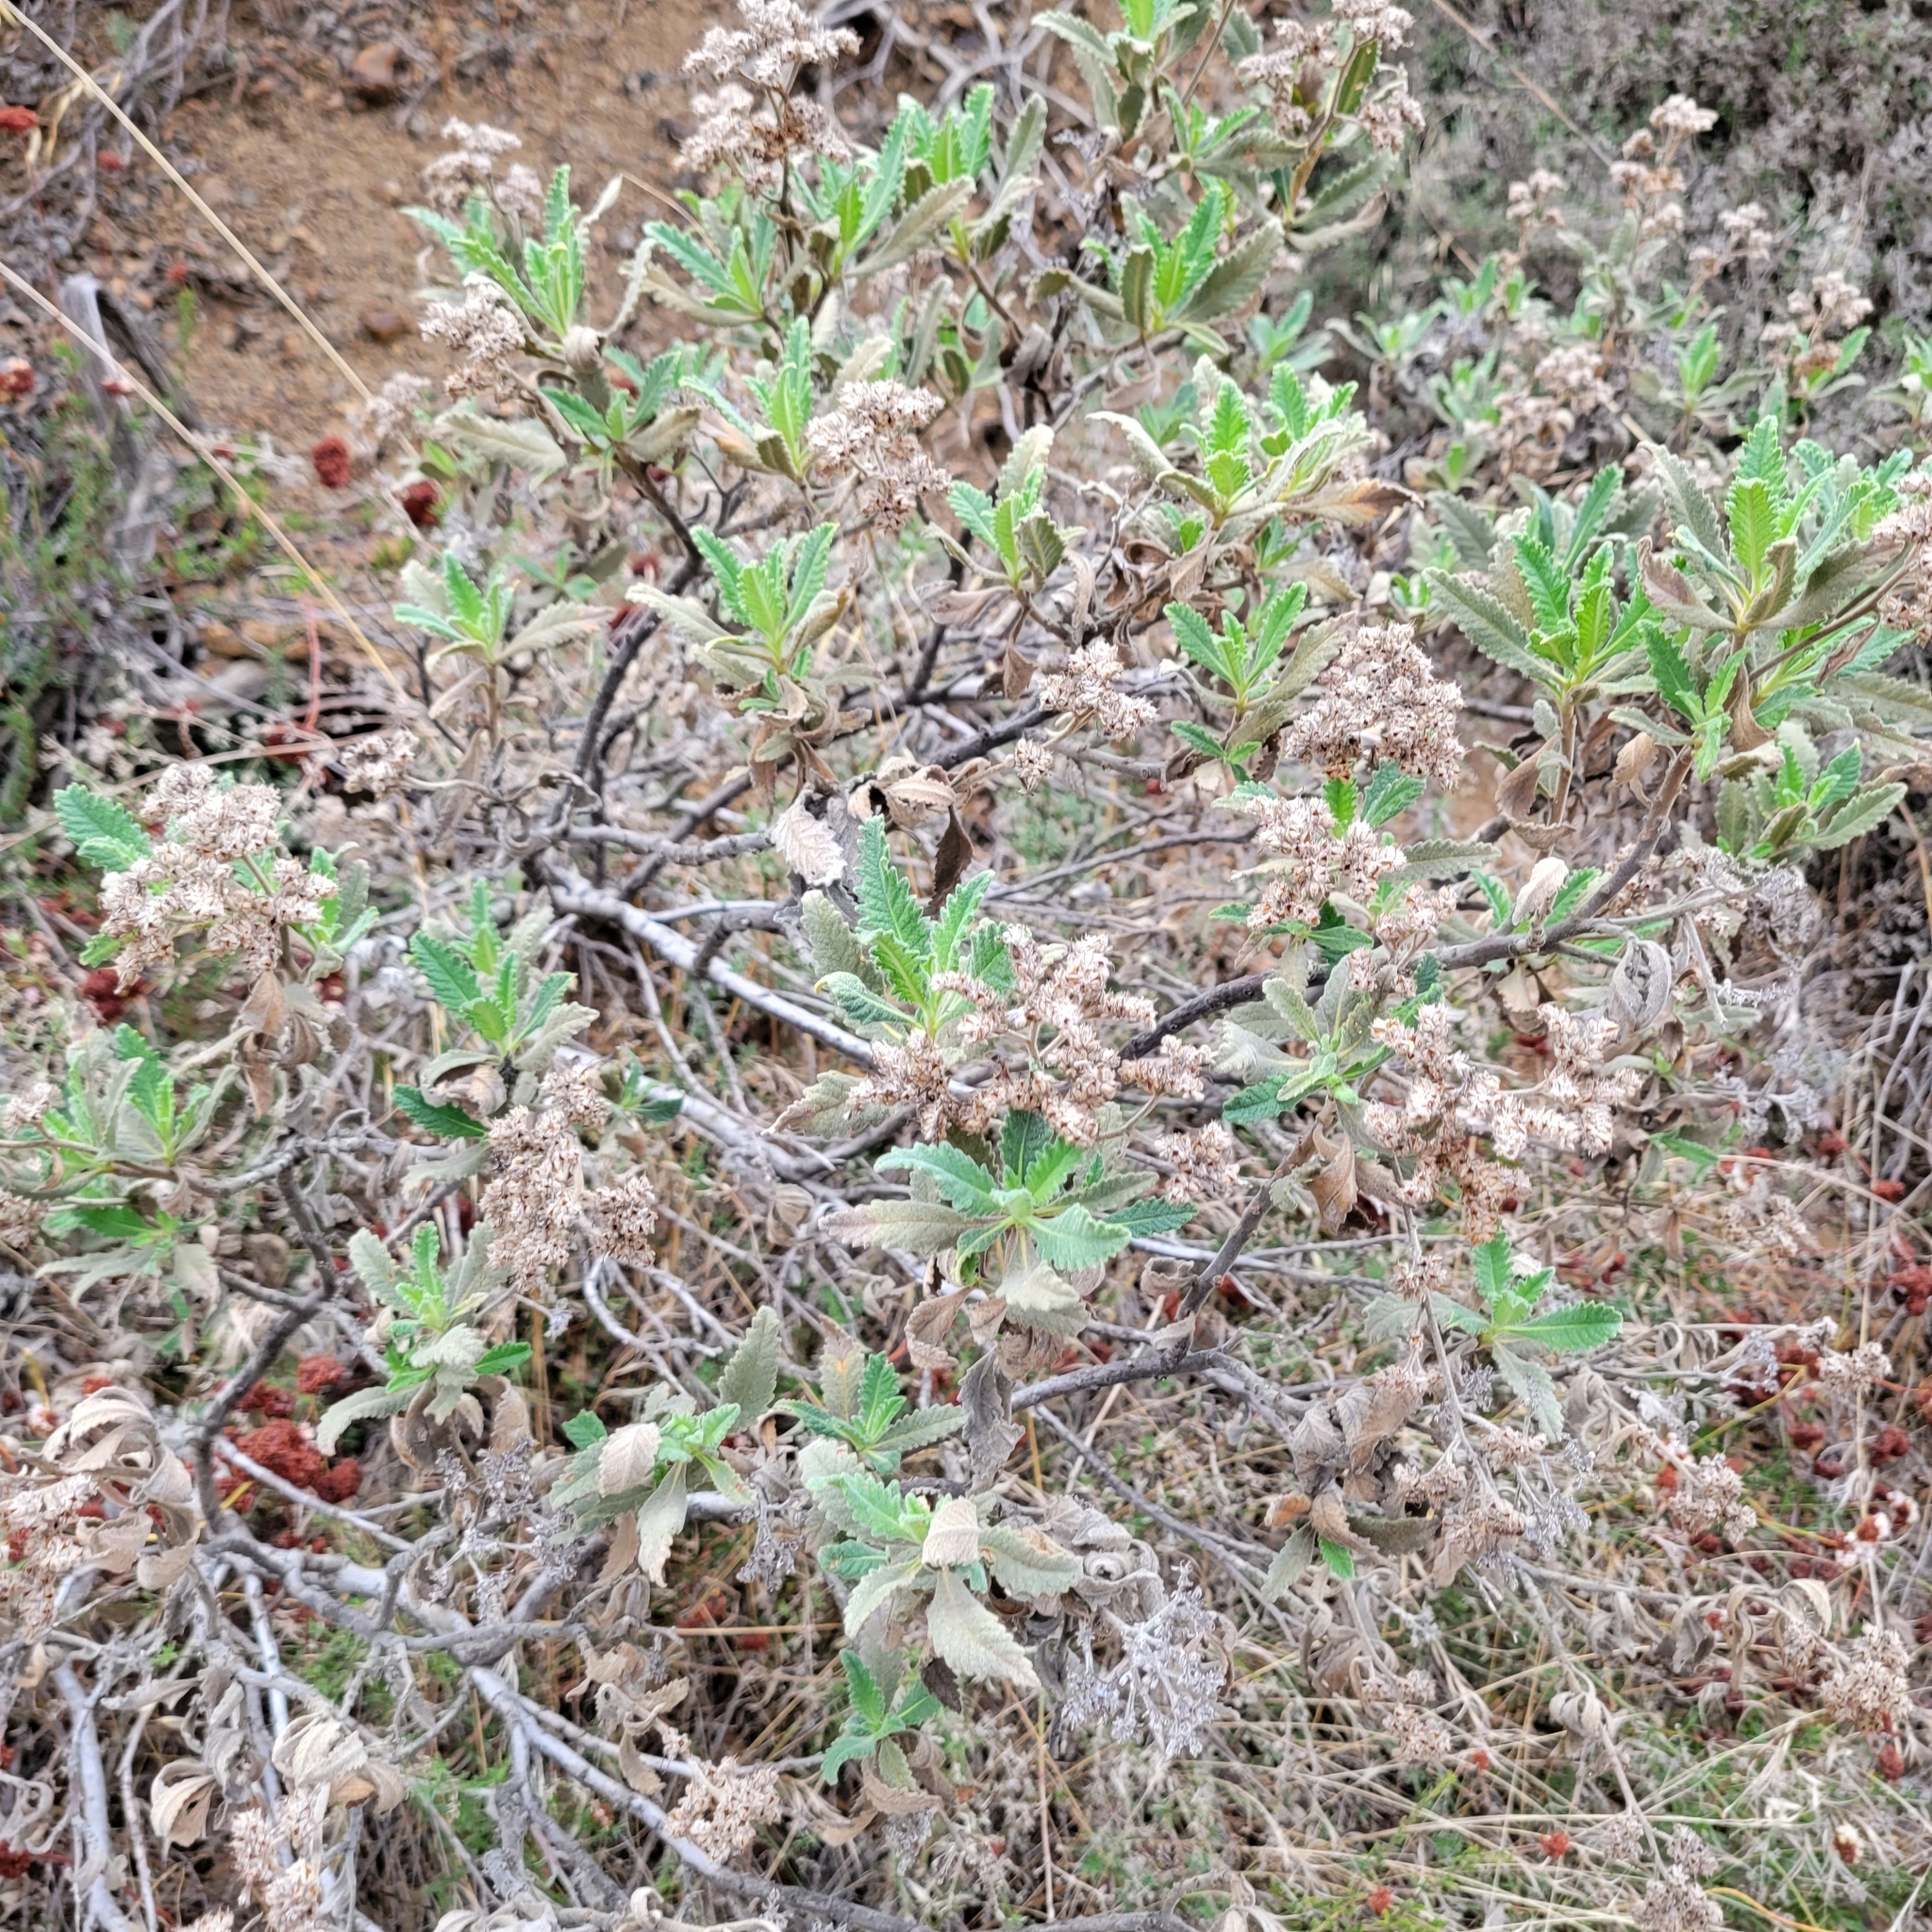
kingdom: Plantae
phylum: Tracheophyta
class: Magnoliopsida
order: Boraginales
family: Namaceae
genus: Eriodictyon
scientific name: Eriodictyon crassifolium
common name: Thick-leaf yerba-santa
